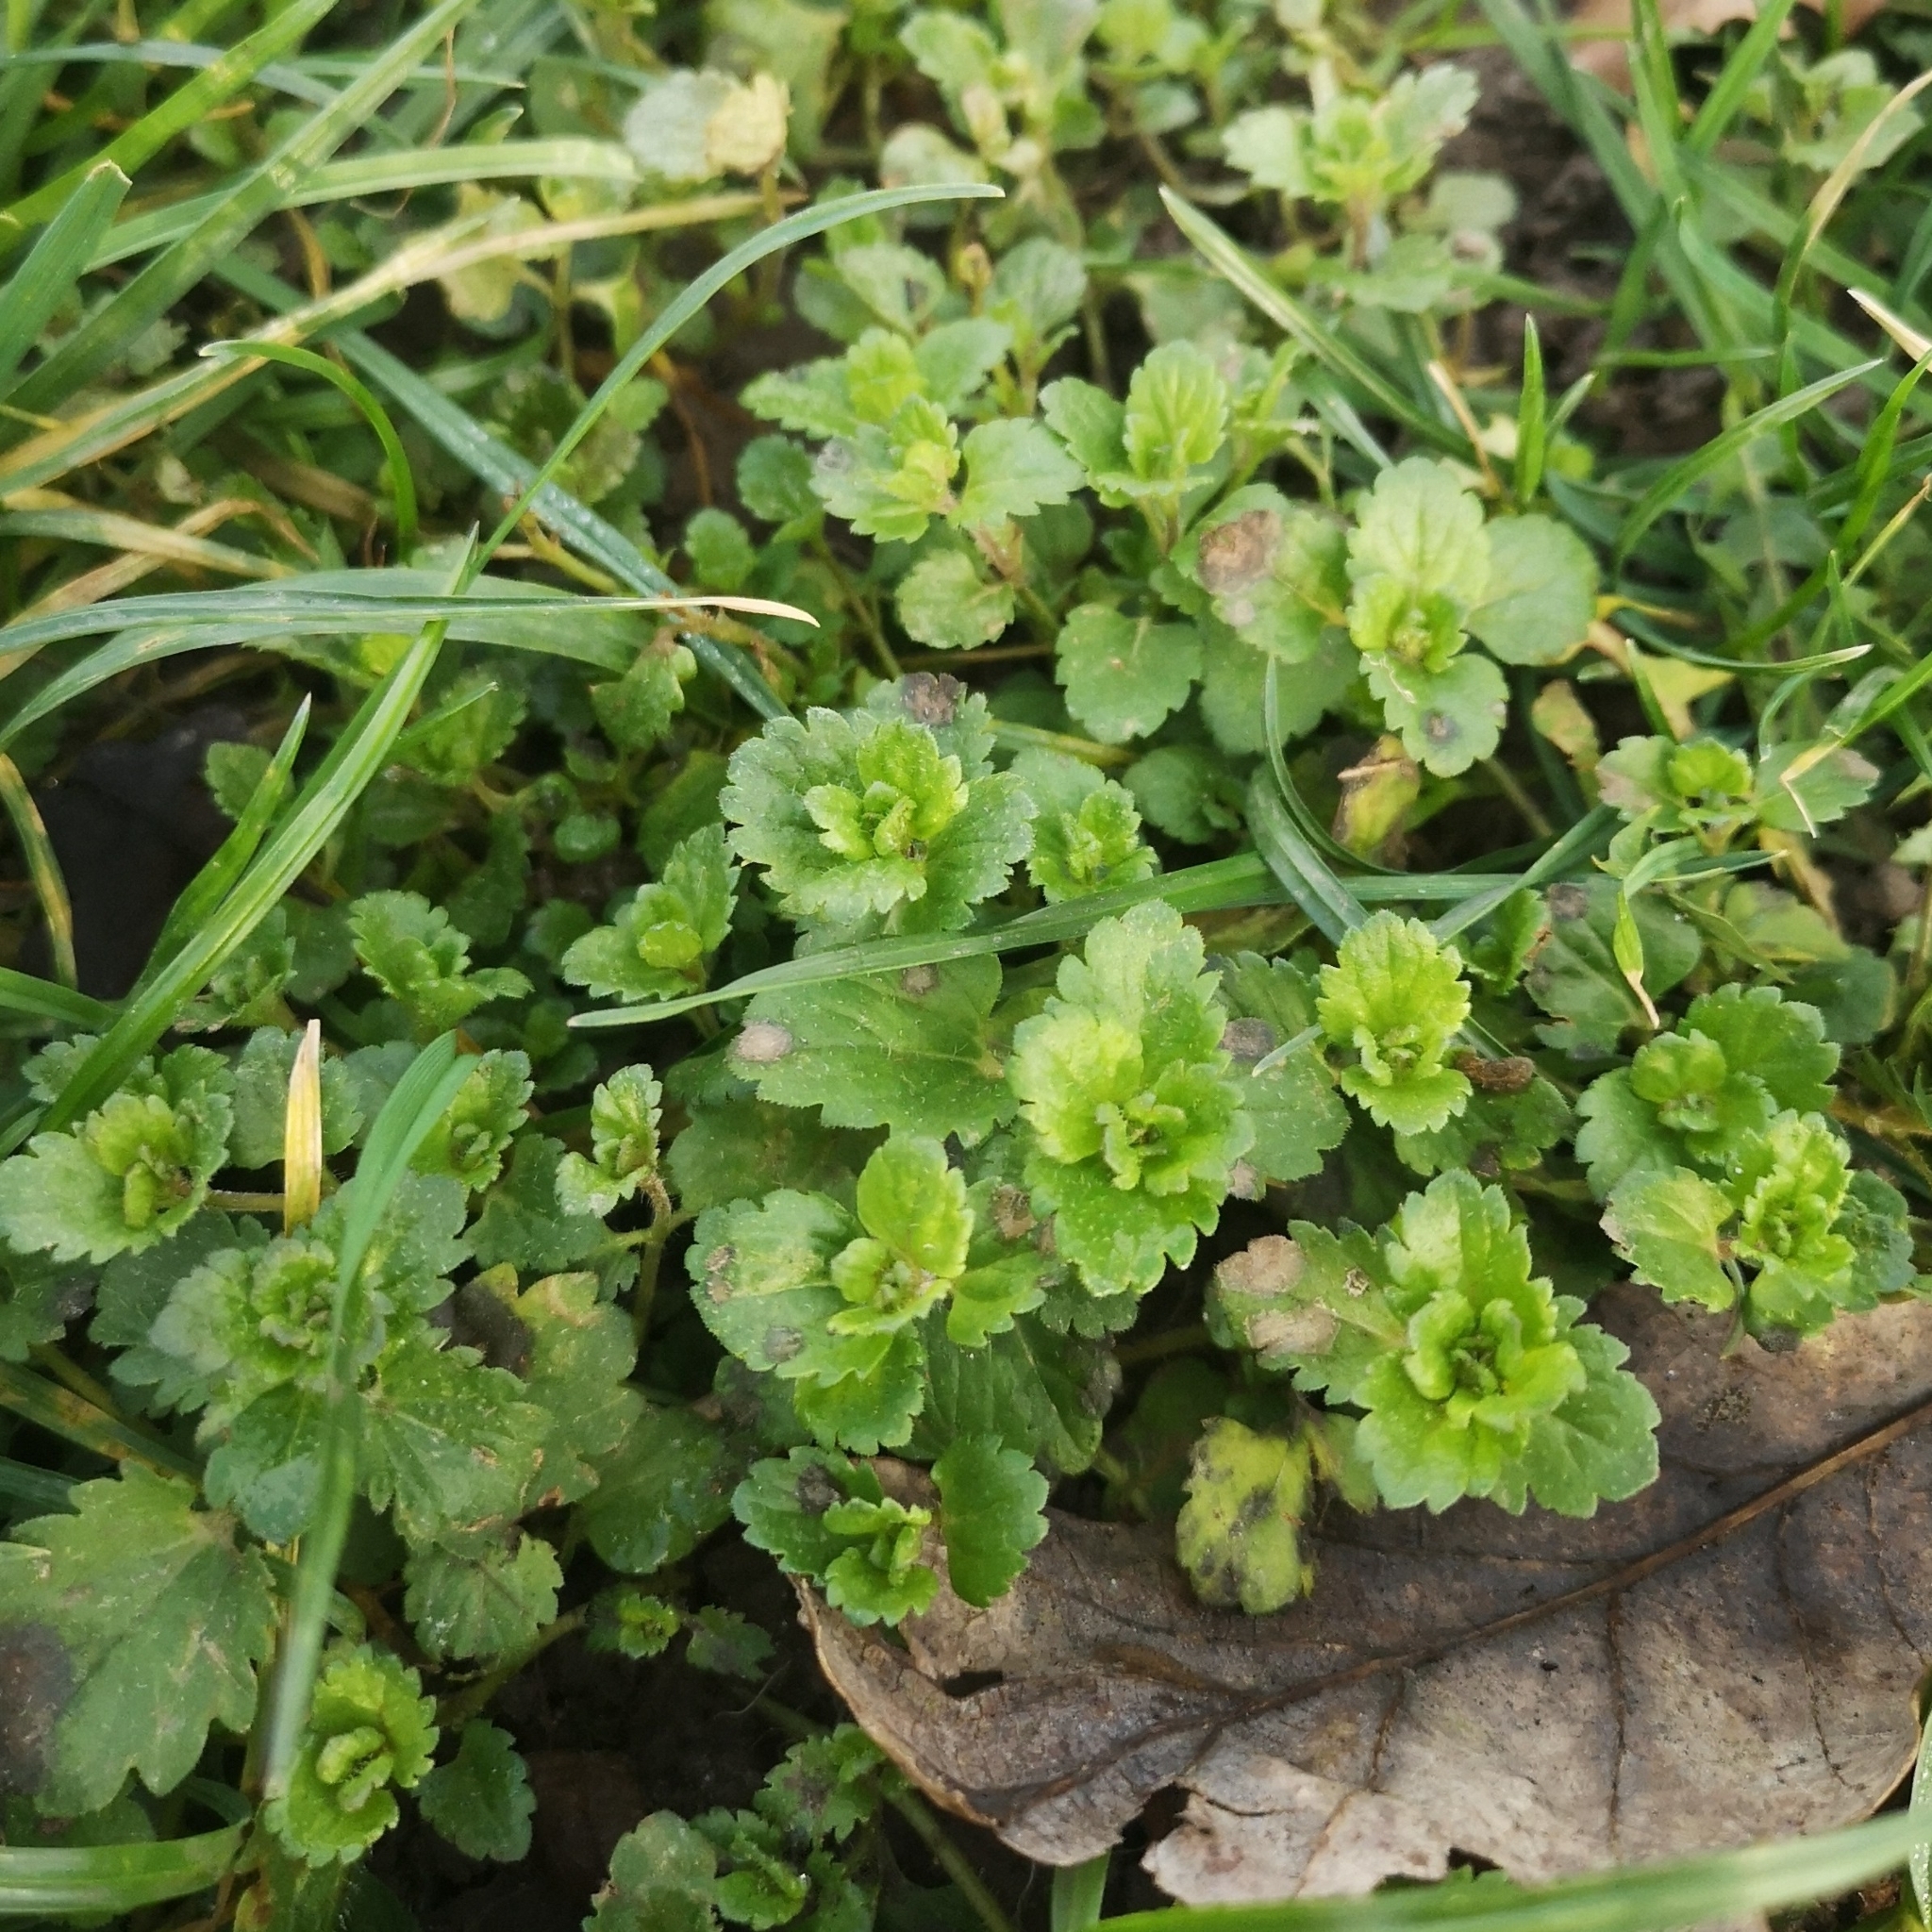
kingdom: Plantae
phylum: Tracheophyta
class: Magnoliopsida
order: Lamiales
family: Plantaginaceae
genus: Veronica
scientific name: Veronica persica
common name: Common field-speedwell
